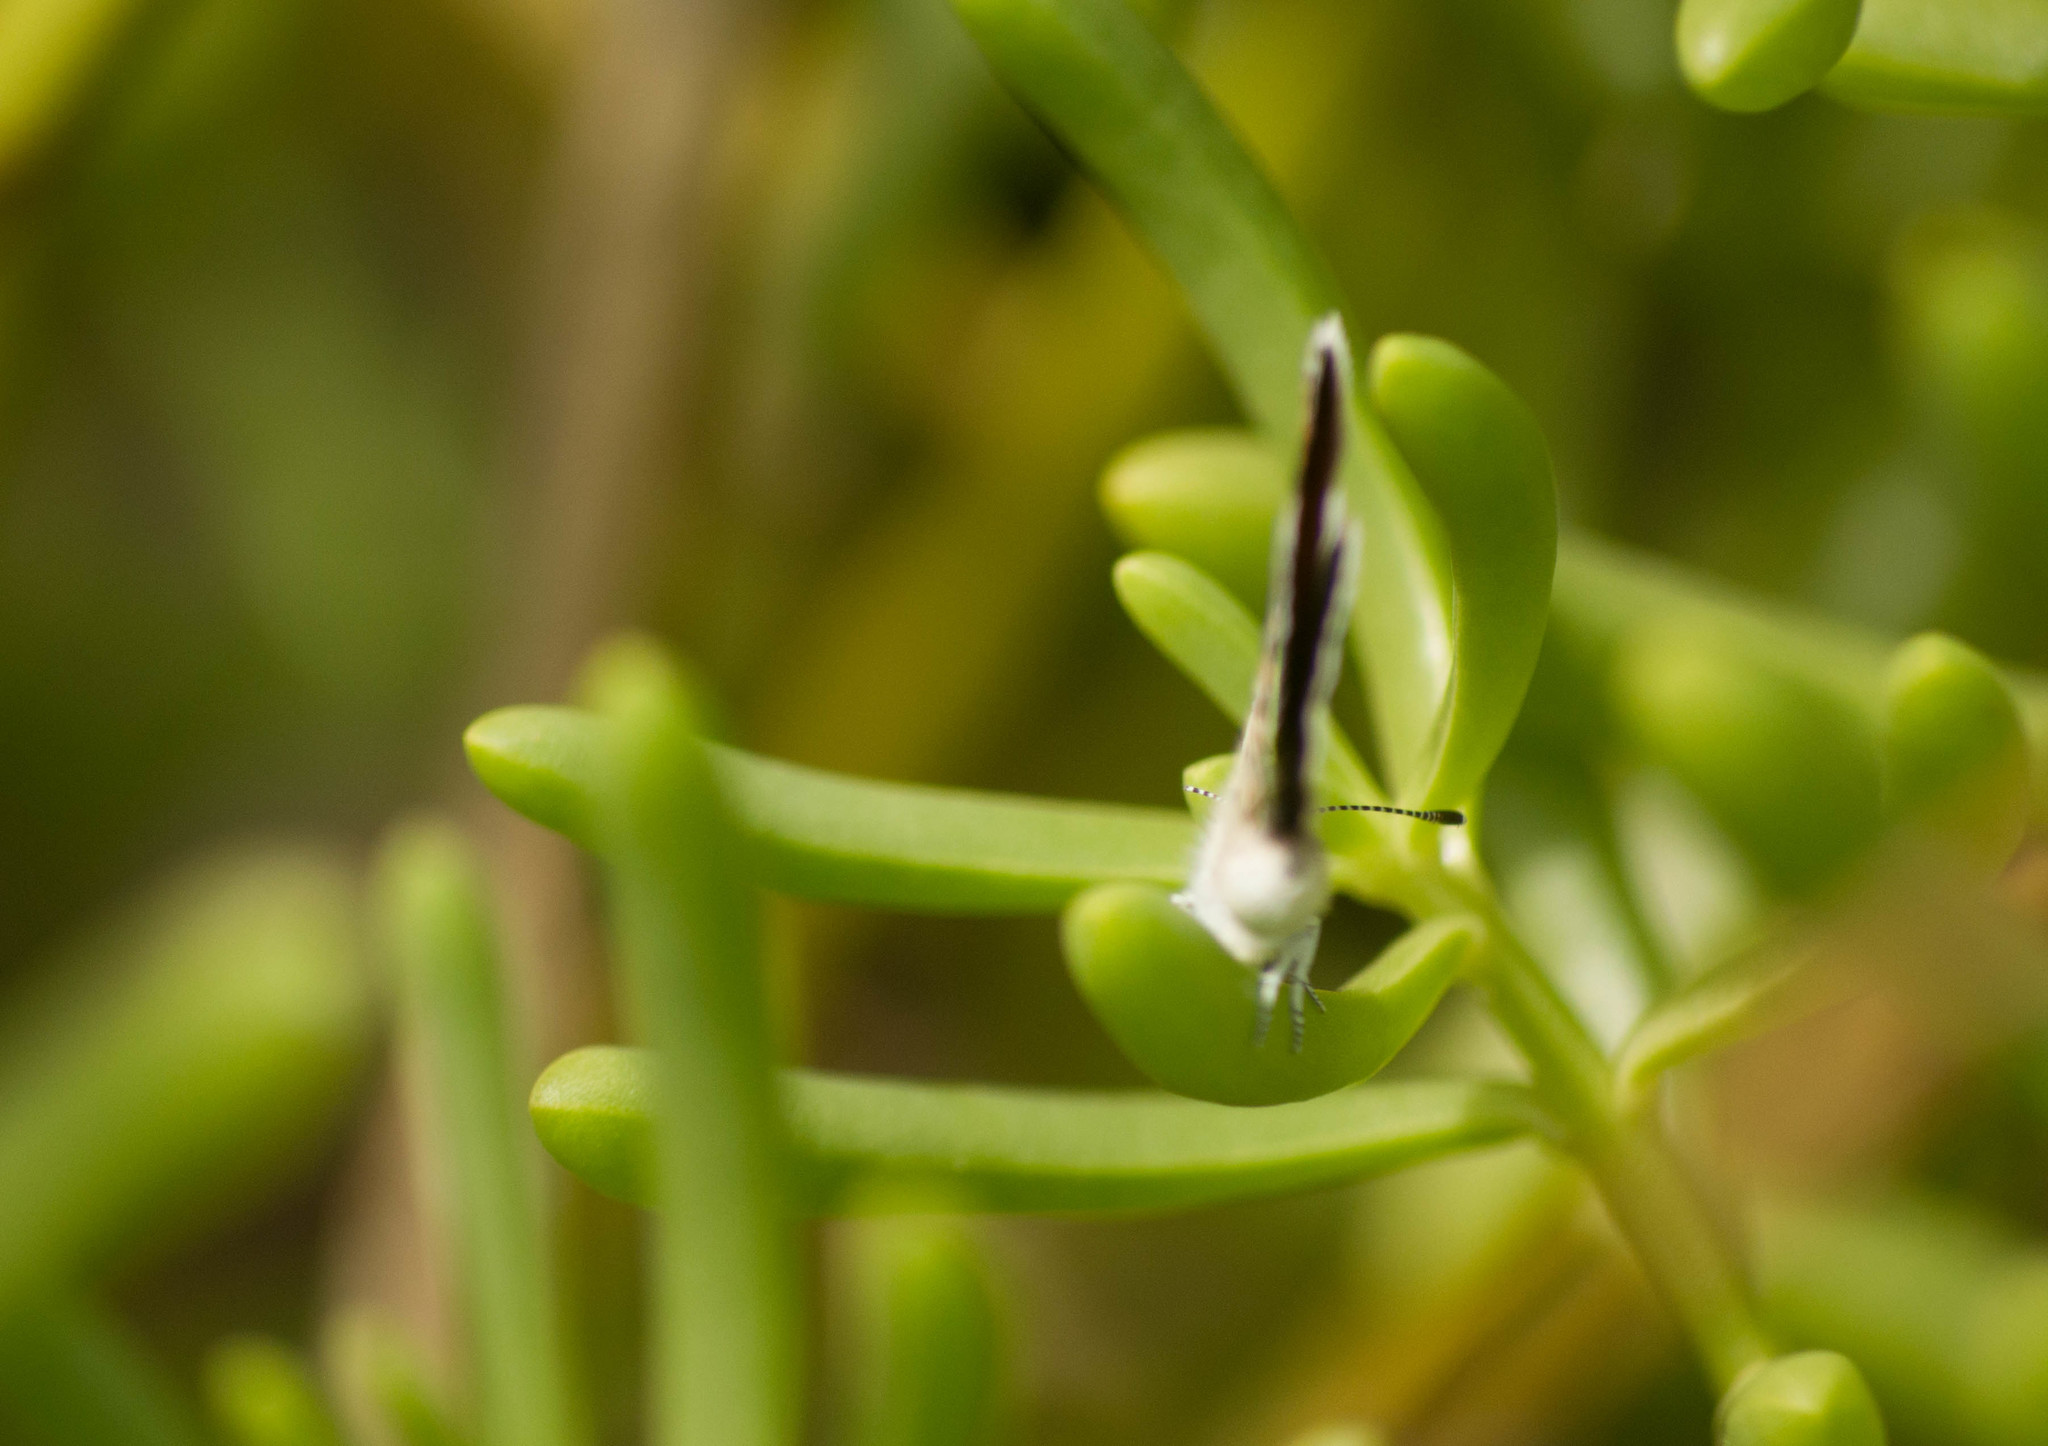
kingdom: Animalia
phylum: Arthropoda
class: Insecta
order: Lepidoptera
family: Lycaenidae
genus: Brephidium
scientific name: Brephidium exilis
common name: Pygmy blue
